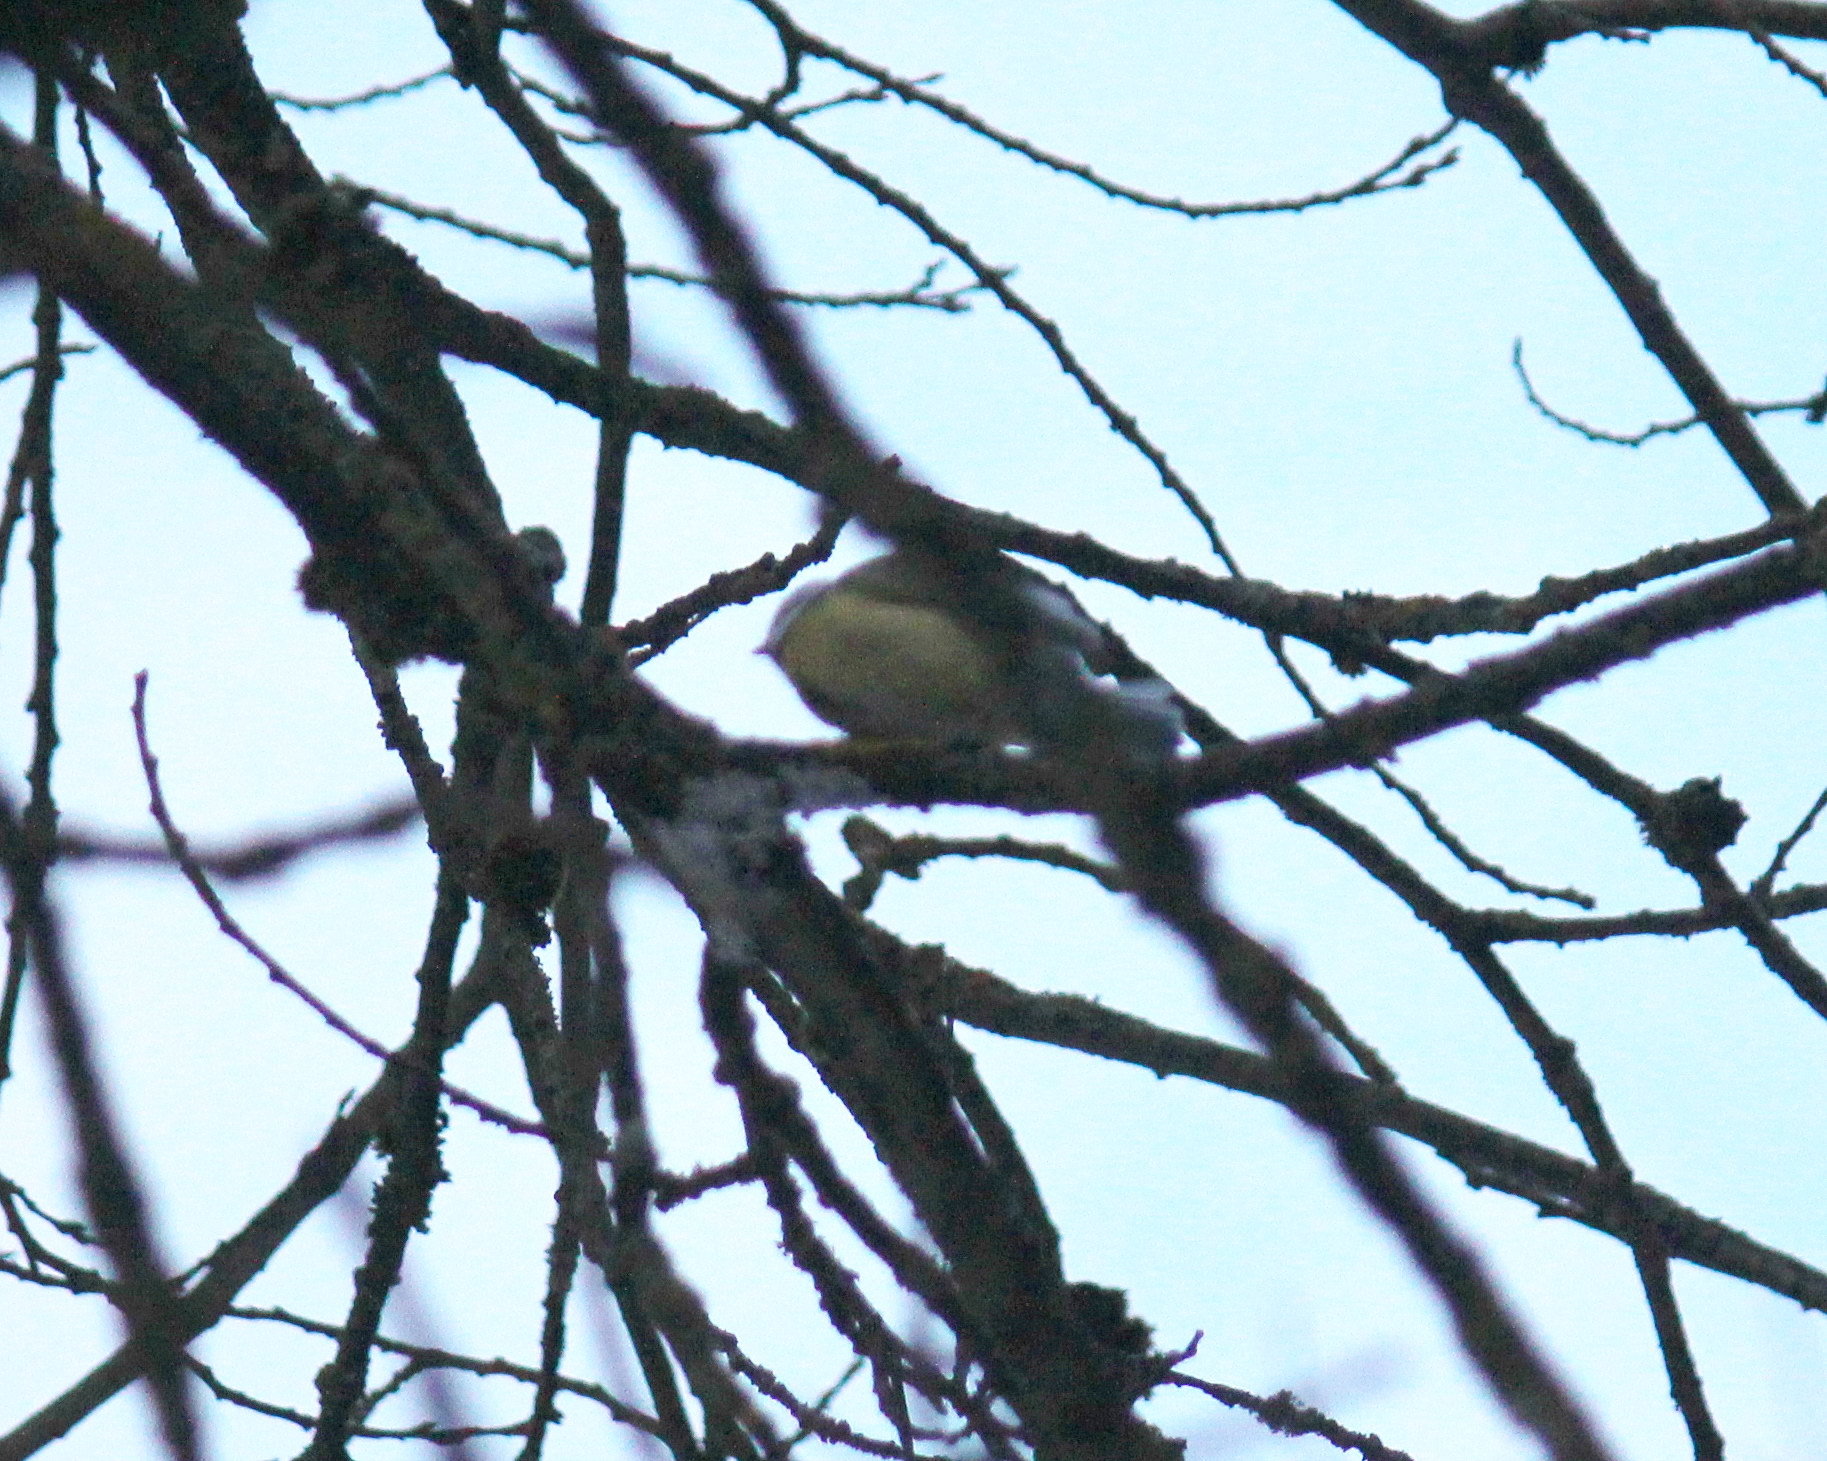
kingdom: Animalia
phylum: Chordata
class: Aves
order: Passeriformes
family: Paridae
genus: Cyanistes
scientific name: Cyanistes caeruleus
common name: Eurasian blue tit
